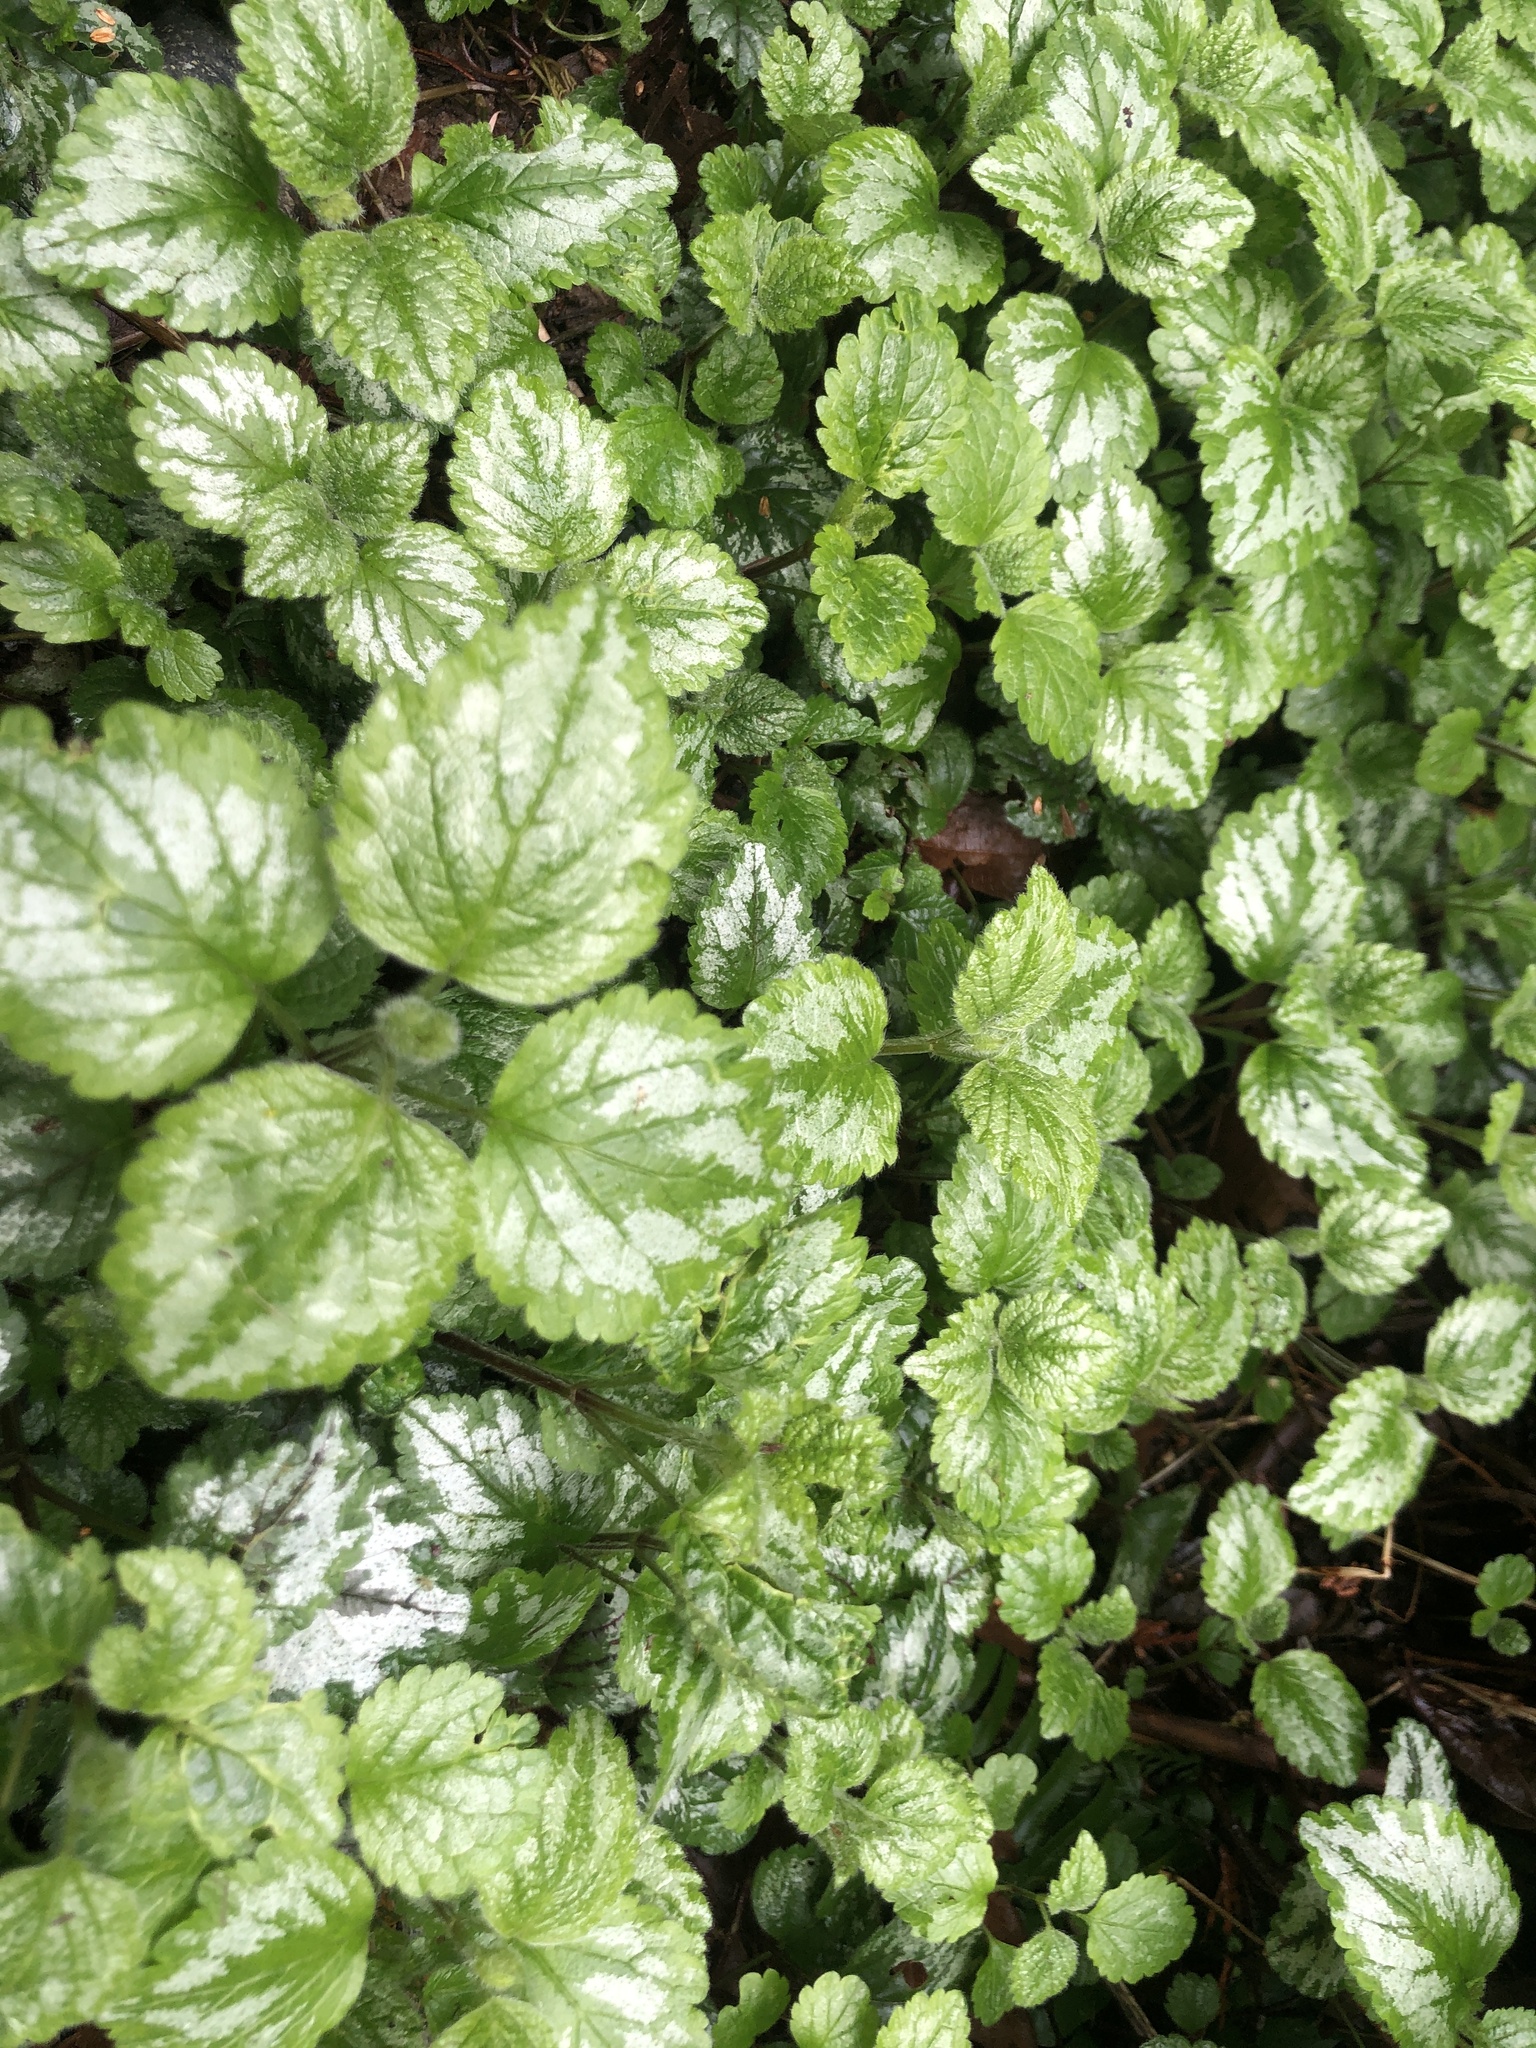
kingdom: Plantae
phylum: Tracheophyta
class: Magnoliopsida
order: Lamiales
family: Lamiaceae
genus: Lamium
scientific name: Lamium galeobdolon
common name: Yellow archangel
